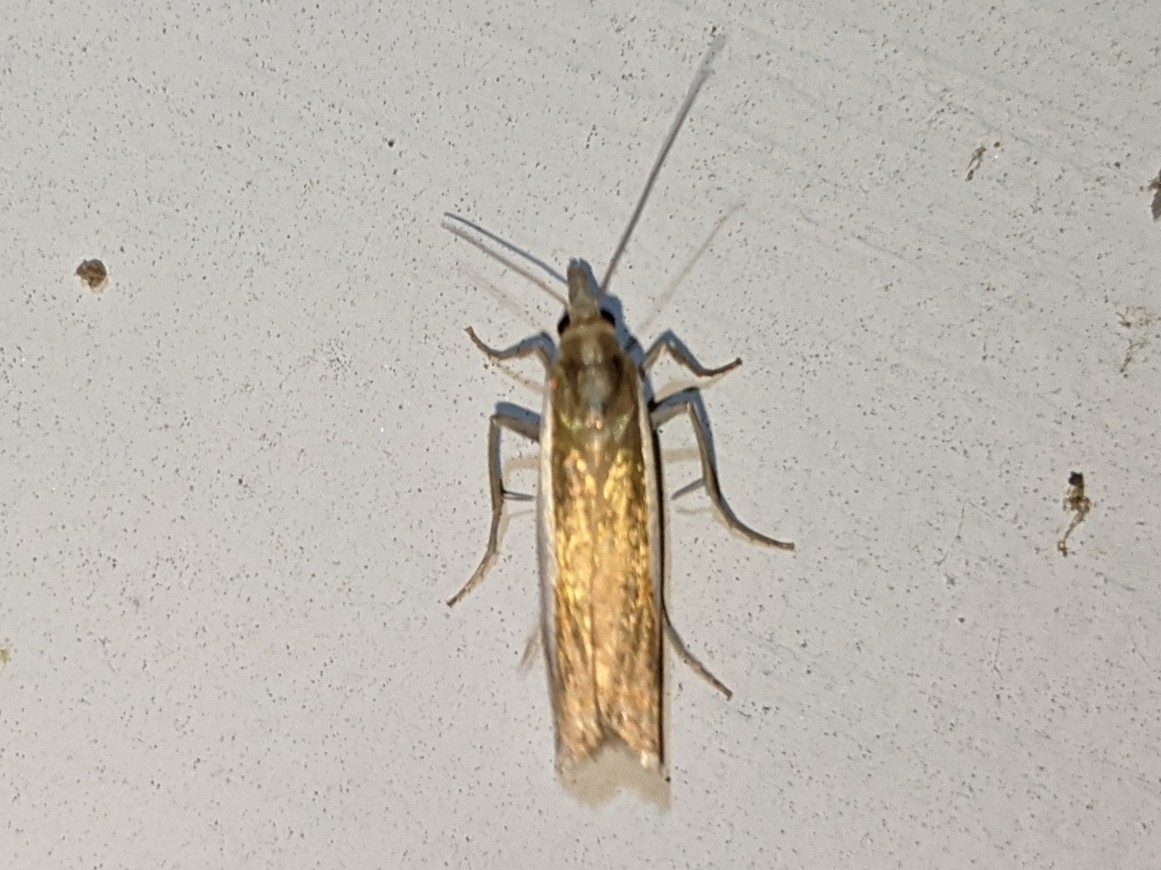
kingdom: Animalia
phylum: Arthropoda
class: Insecta
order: Lepidoptera
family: Crambidae
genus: Crambus
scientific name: Crambus
